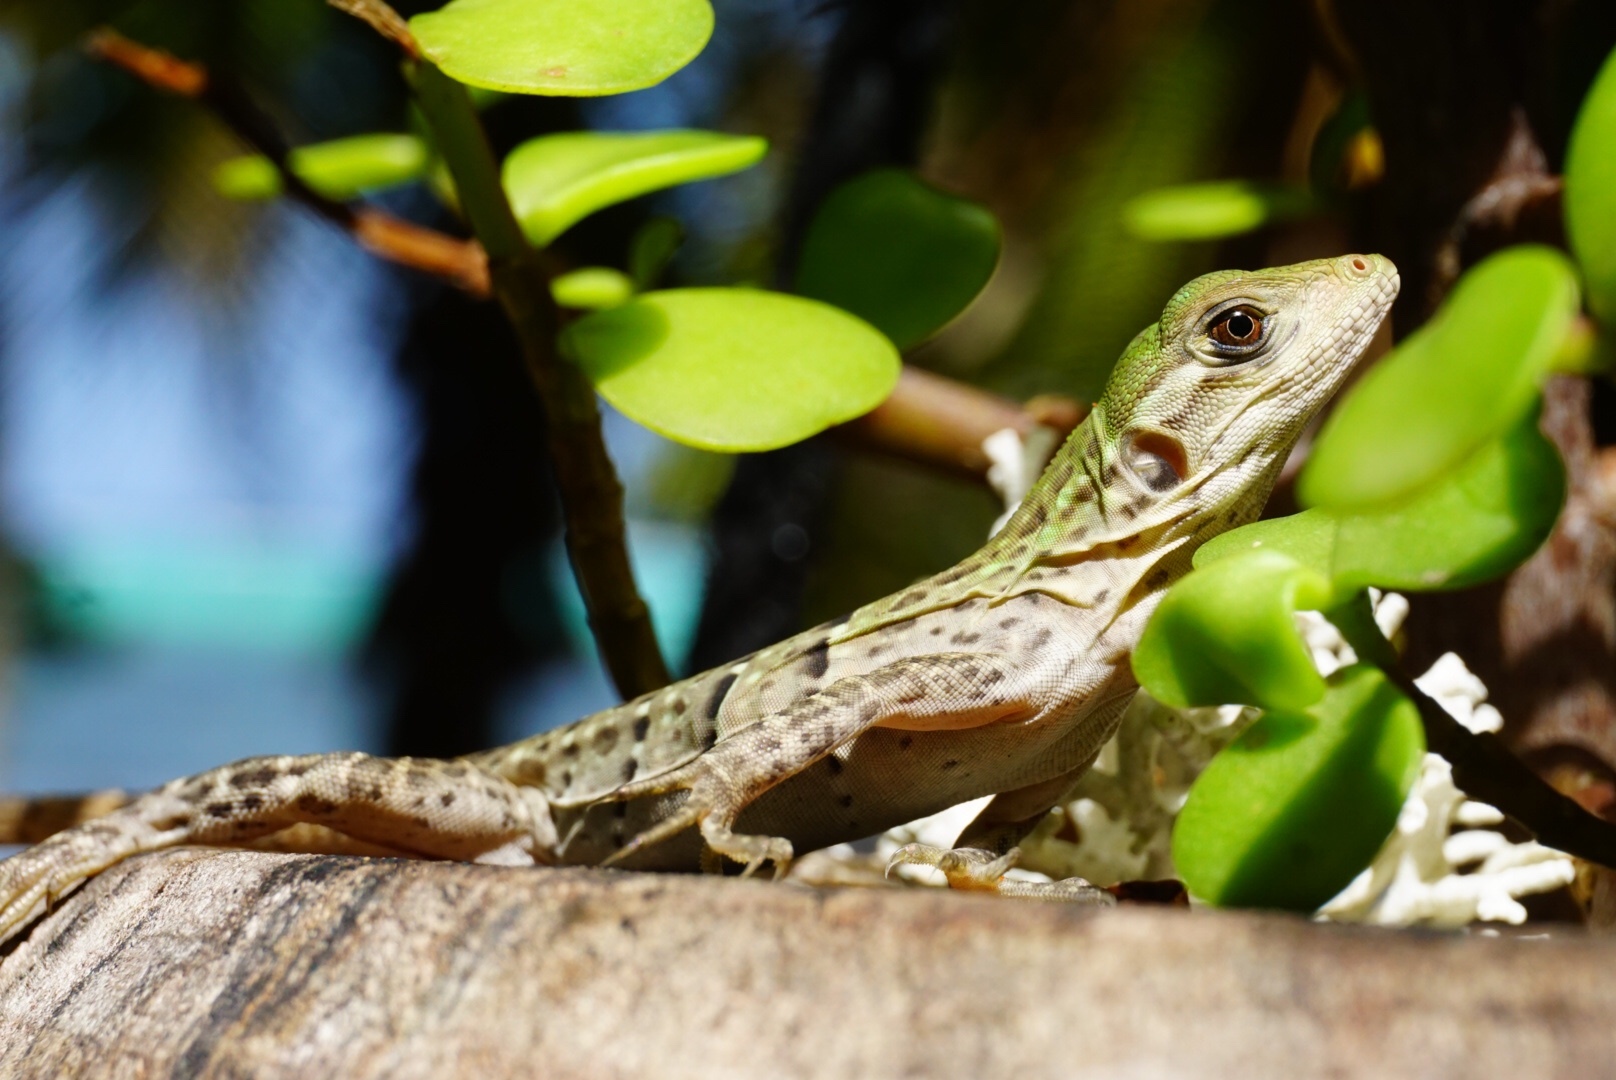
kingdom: Animalia
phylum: Chordata
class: Squamata
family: Iguanidae
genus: Ctenosaura
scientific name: Ctenosaura similis
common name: Black spiny-tailed iguana
